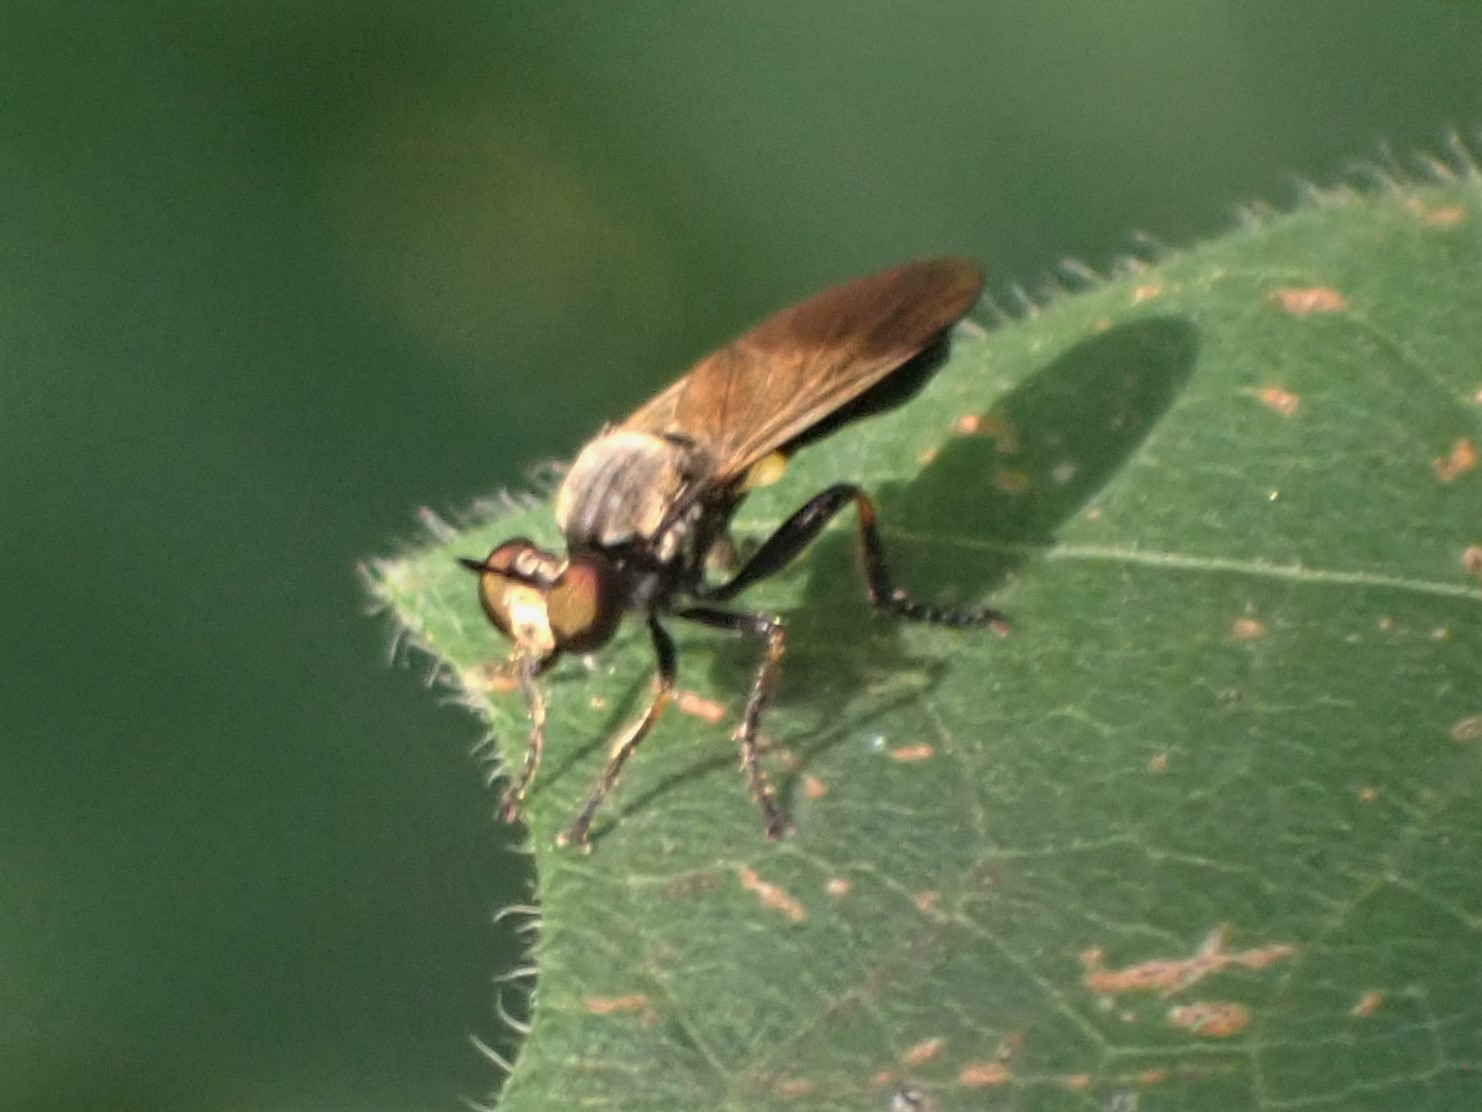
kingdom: Animalia
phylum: Arthropoda
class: Insecta
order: Diptera
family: Asilidae
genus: Eudioctria
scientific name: Eudioctria sackeni
